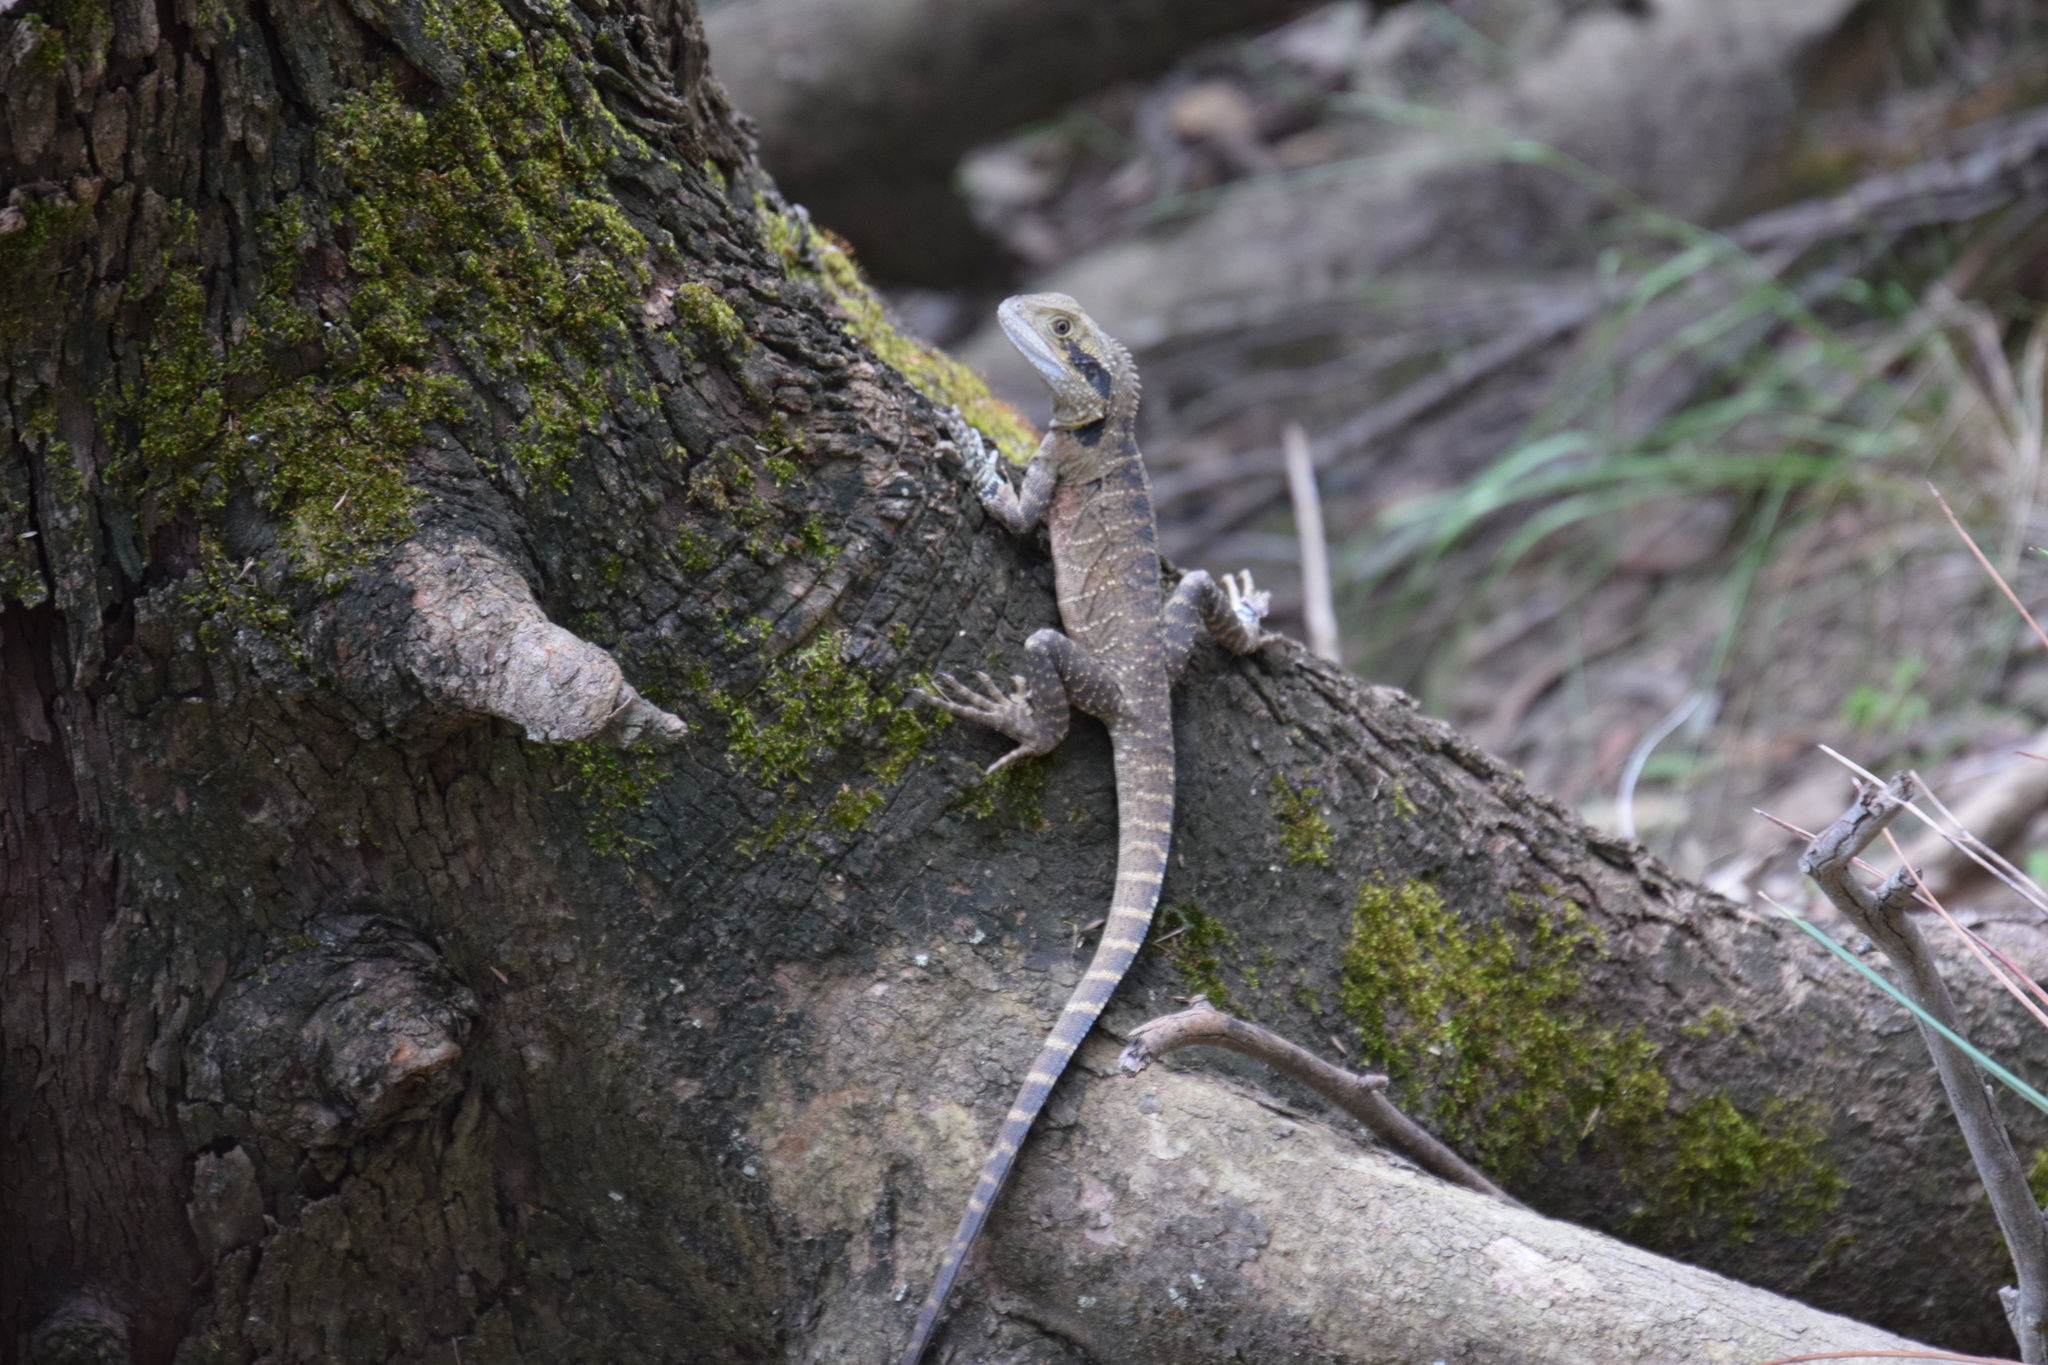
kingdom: Animalia
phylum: Chordata
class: Squamata
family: Agamidae
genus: Intellagama
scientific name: Intellagama lesueurii
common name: Eastern water dragon
